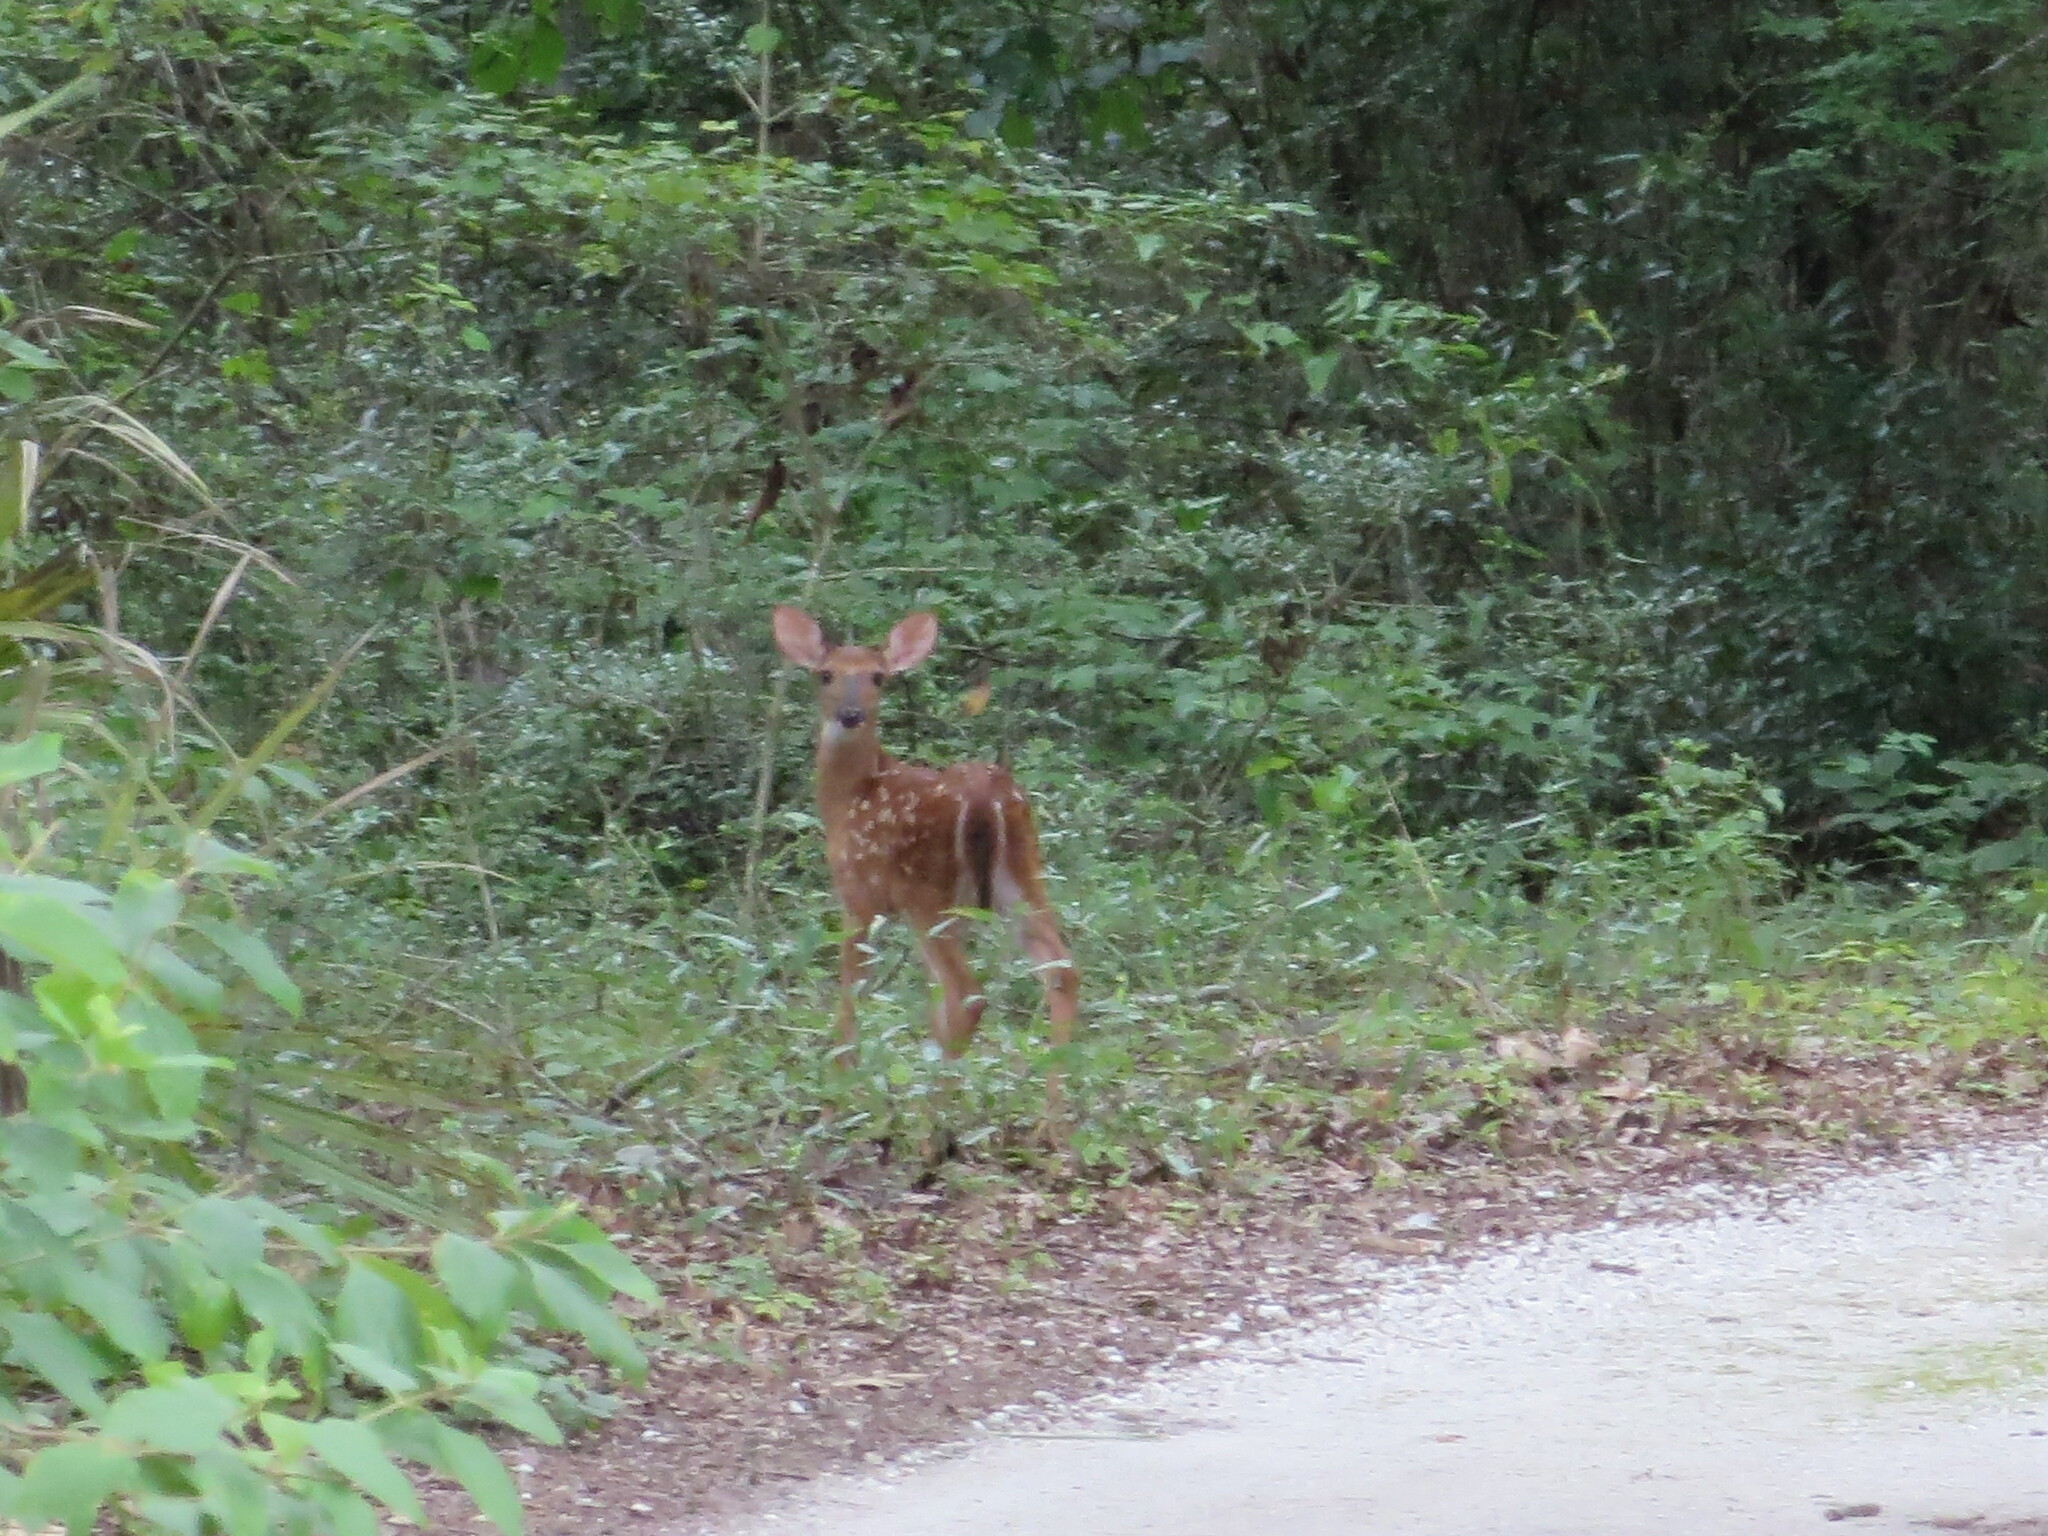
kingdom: Animalia
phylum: Chordata
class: Mammalia
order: Artiodactyla
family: Cervidae
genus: Odocoileus
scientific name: Odocoileus virginianus
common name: White-tailed deer
